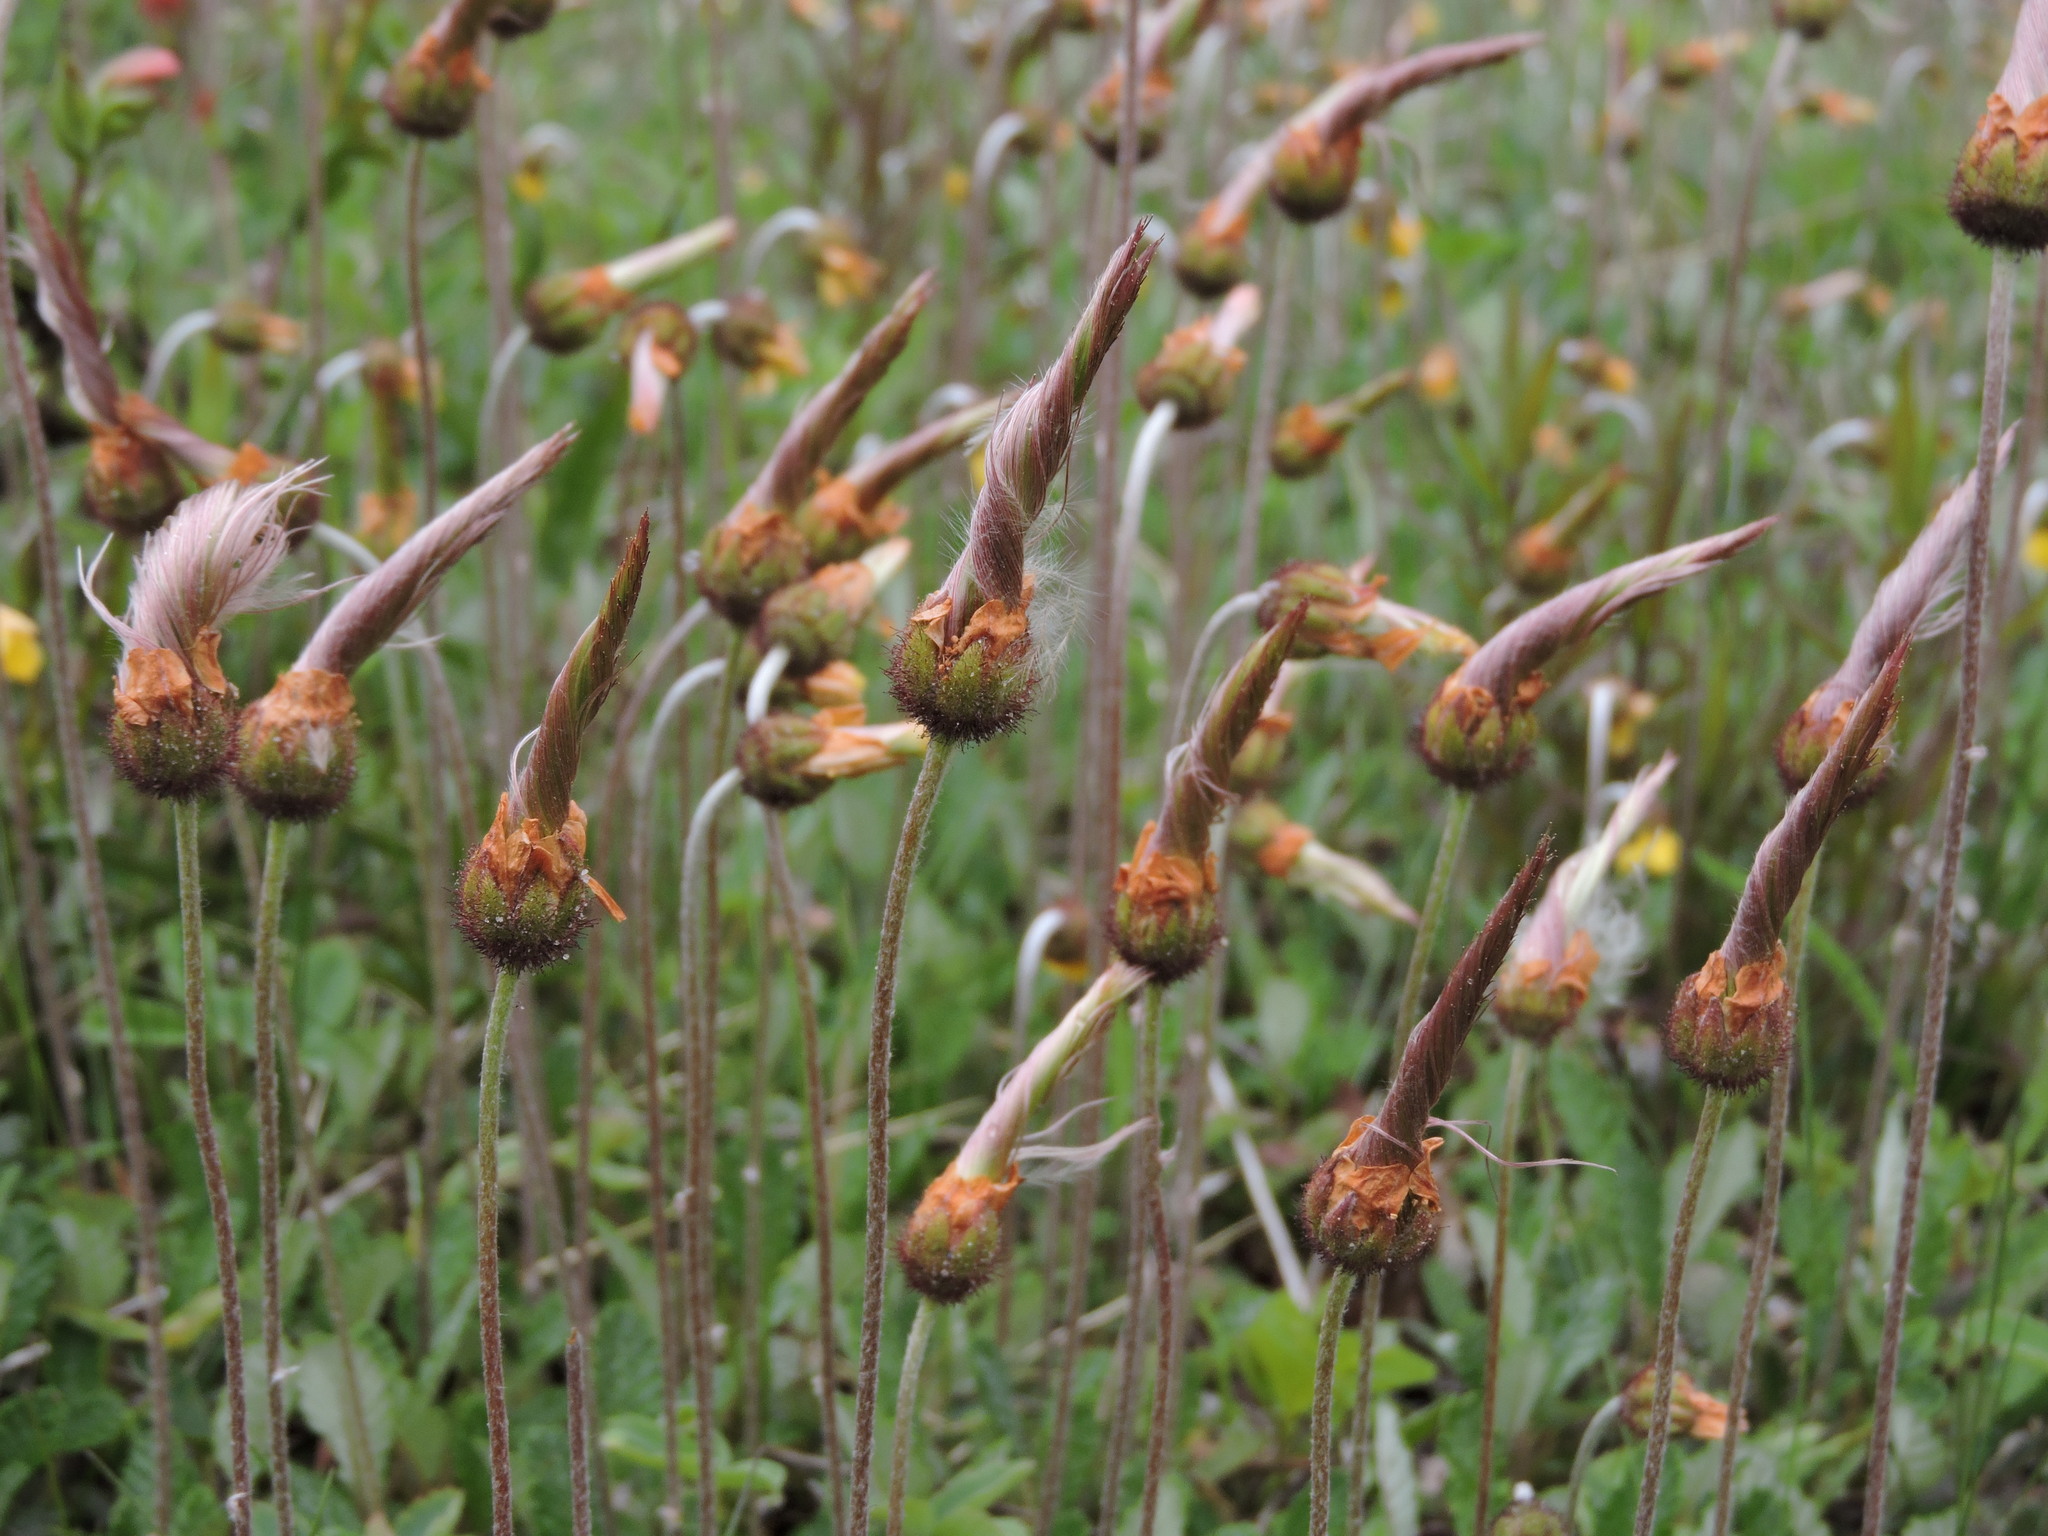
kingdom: Plantae
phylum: Tracheophyta
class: Magnoliopsida
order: Rosales
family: Rosaceae
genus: Dryas
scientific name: Dryas drummondii
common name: Drummond's dryad
